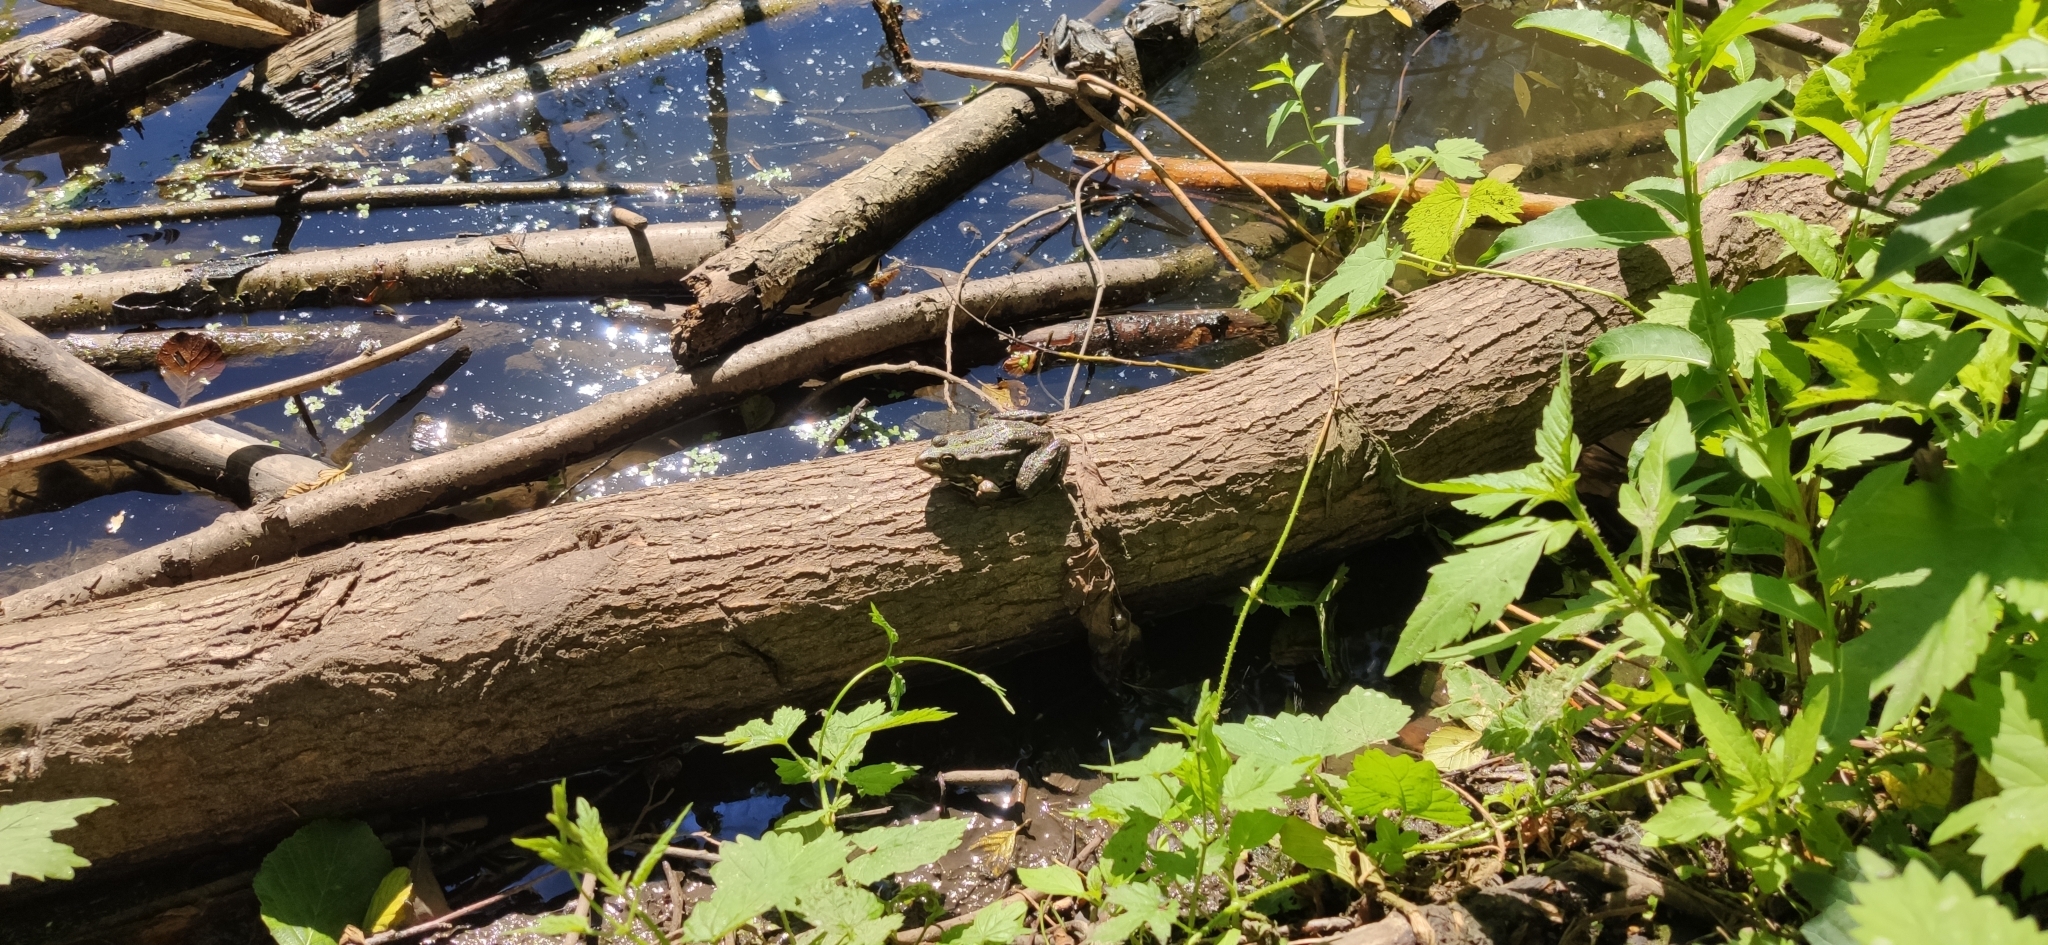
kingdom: Animalia
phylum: Chordata
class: Amphibia
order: Anura
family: Ranidae
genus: Pelophylax
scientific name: Pelophylax ridibundus
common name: Marsh frog
